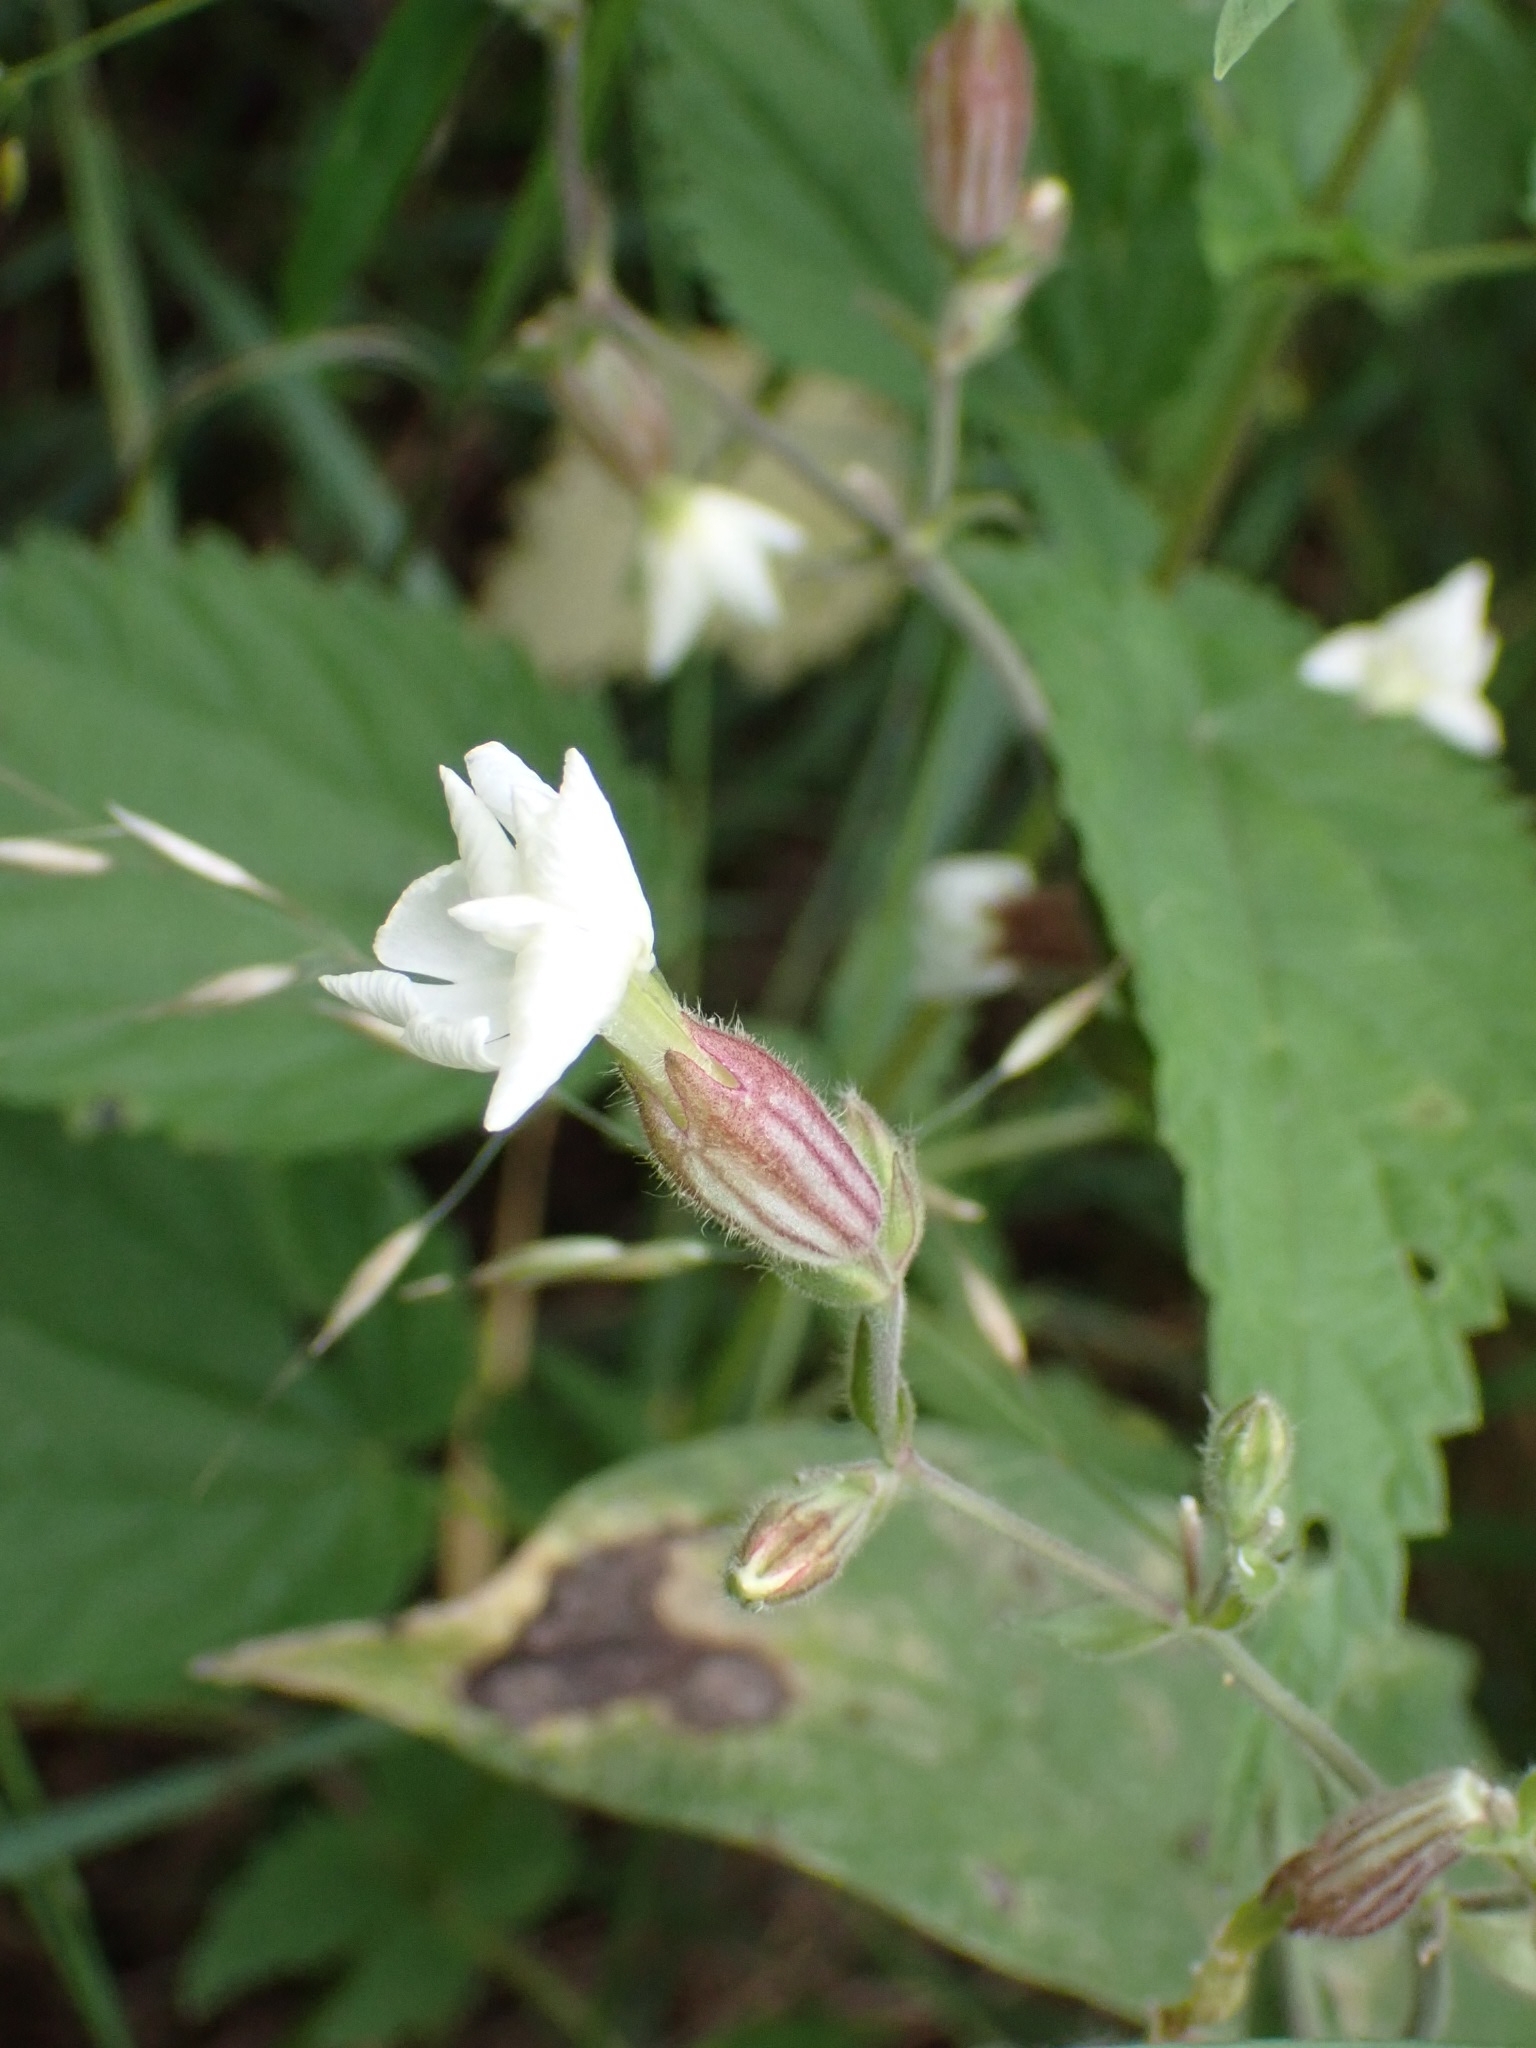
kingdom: Plantae
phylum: Tracheophyta
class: Magnoliopsida
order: Caryophyllales
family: Caryophyllaceae
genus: Silene
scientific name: Silene latifolia
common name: White campion
